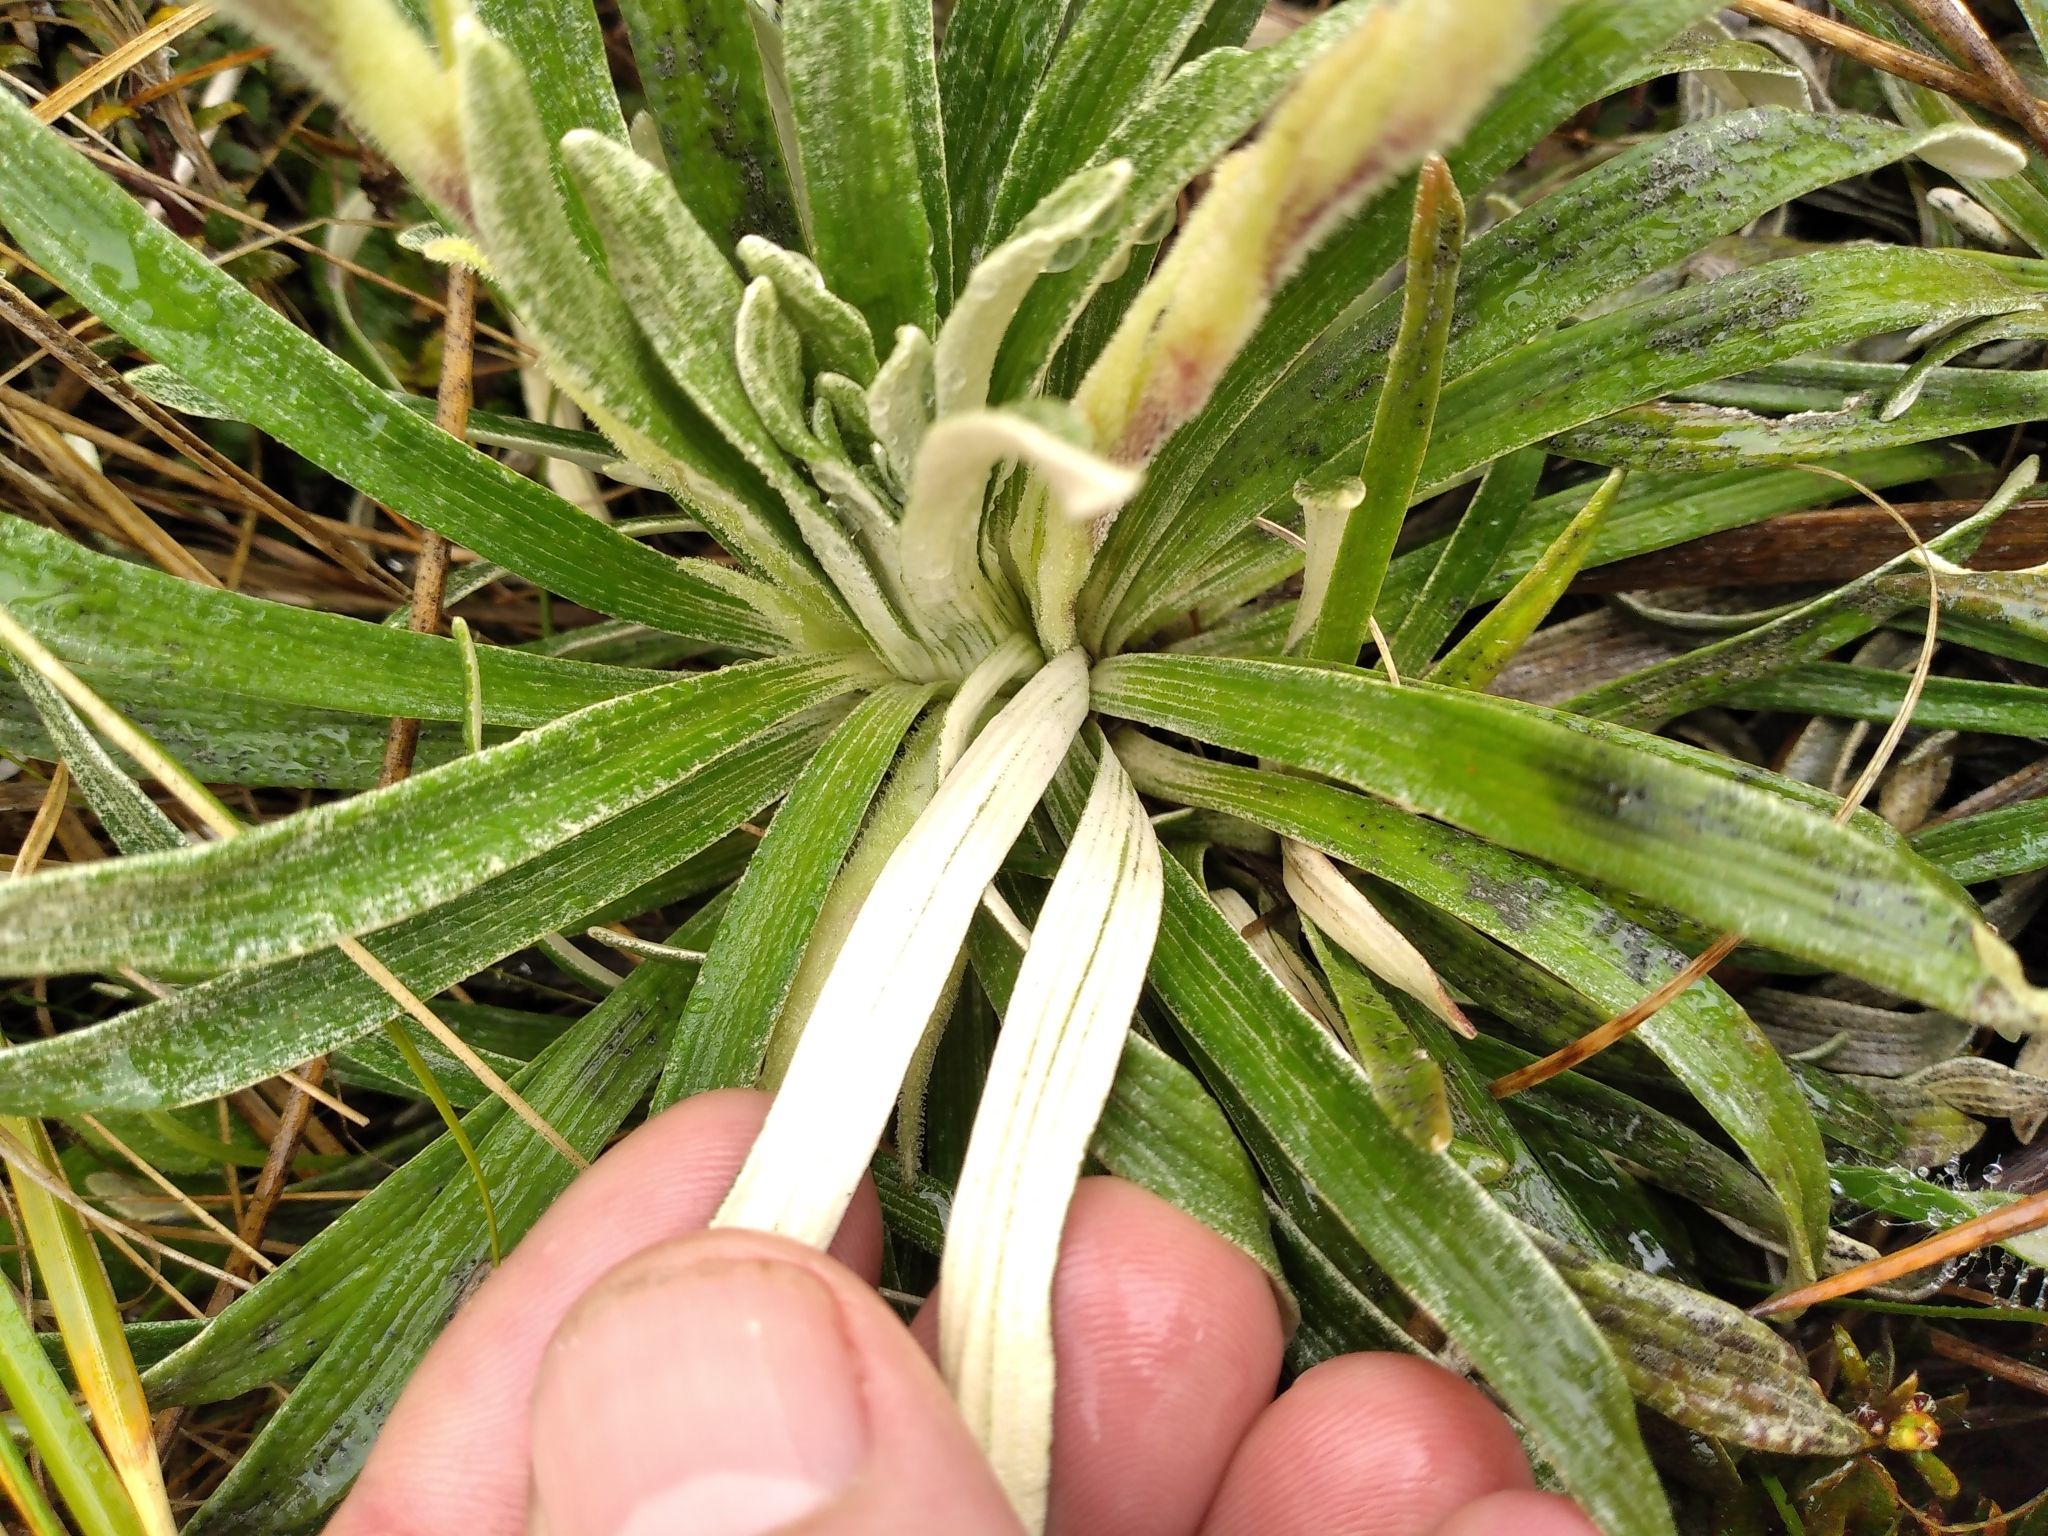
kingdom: Plantae
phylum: Tracheophyta
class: Magnoliopsida
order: Asterales
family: Asteraceae
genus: Celmisia
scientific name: Celmisia viscosa
